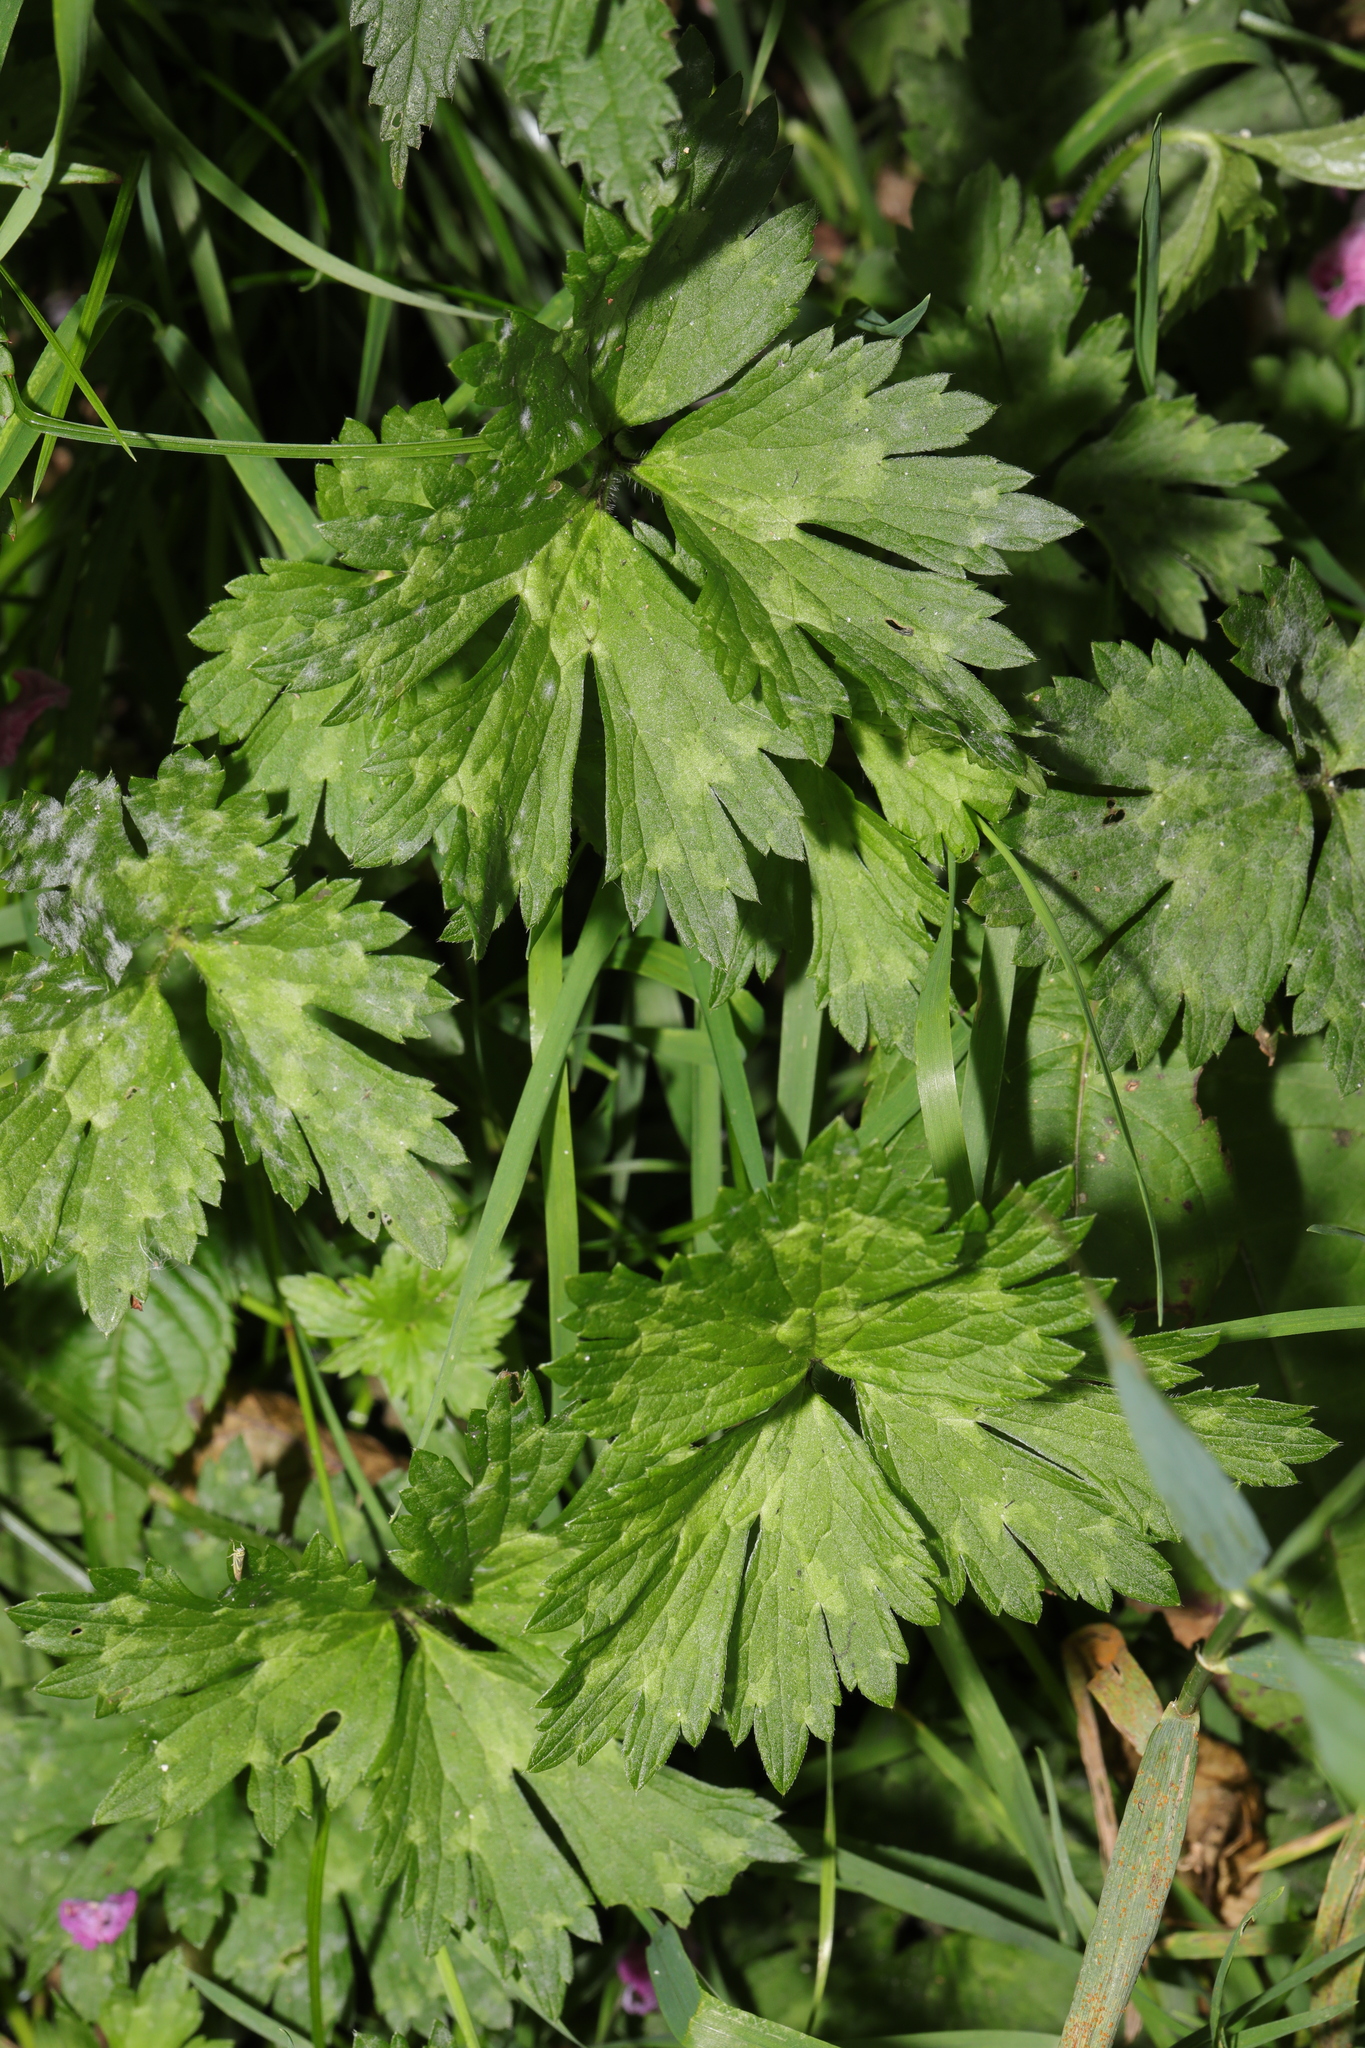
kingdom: Plantae
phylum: Tracheophyta
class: Magnoliopsida
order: Ranunculales
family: Ranunculaceae
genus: Ranunculus
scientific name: Ranunculus repens
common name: Creeping buttercup
